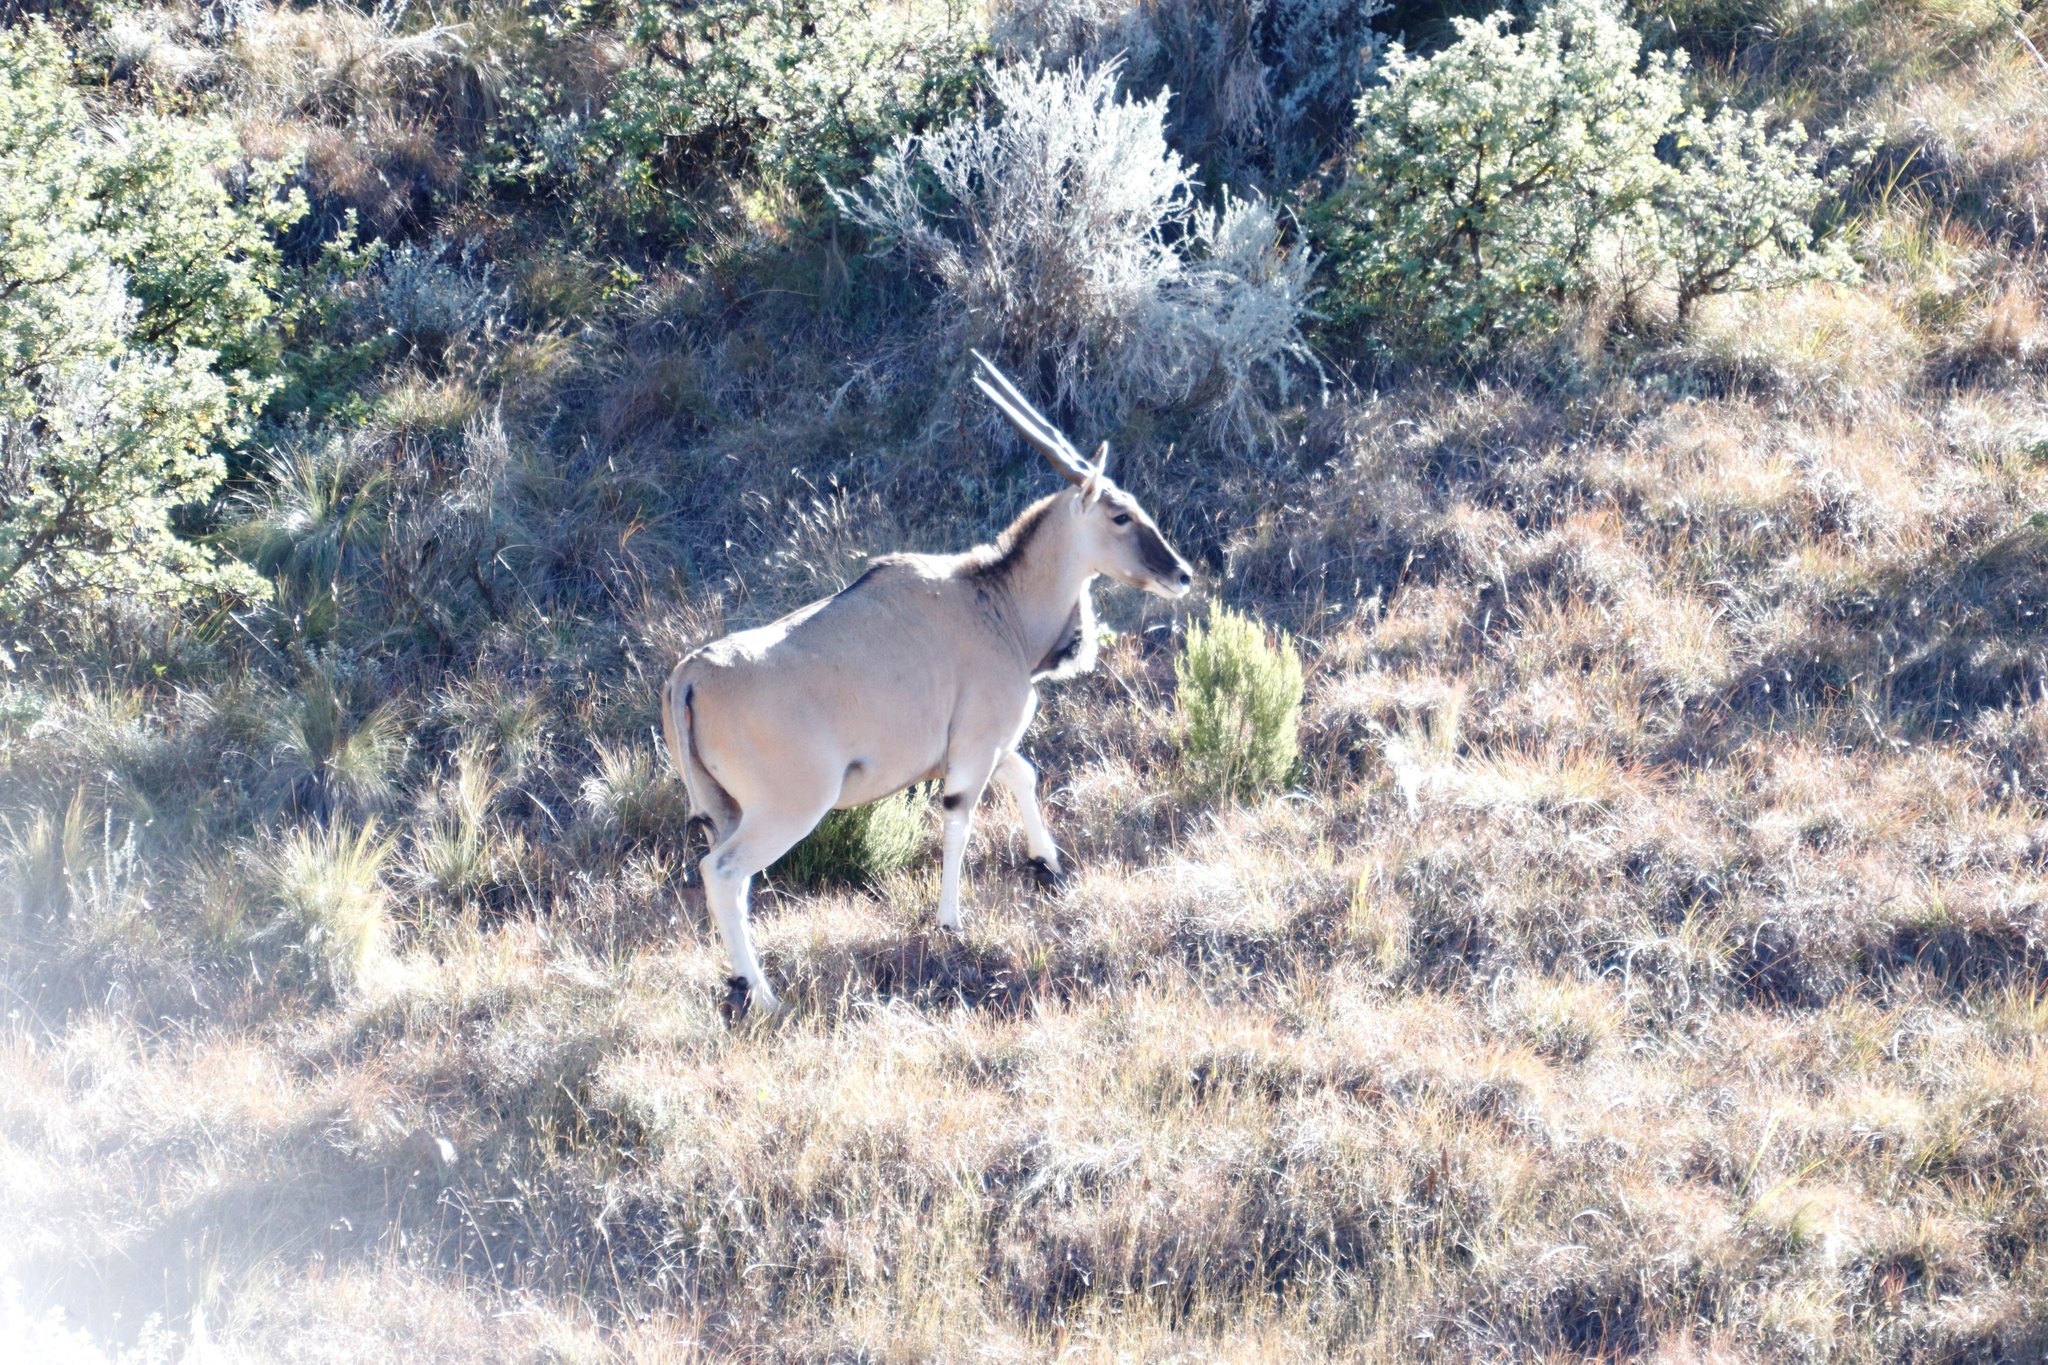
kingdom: Animalia
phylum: Chordata
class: Mammalia
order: Artiodactyla
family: Bovidae
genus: Taurotragus
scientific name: Taurotragus oryx
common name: Common eland
